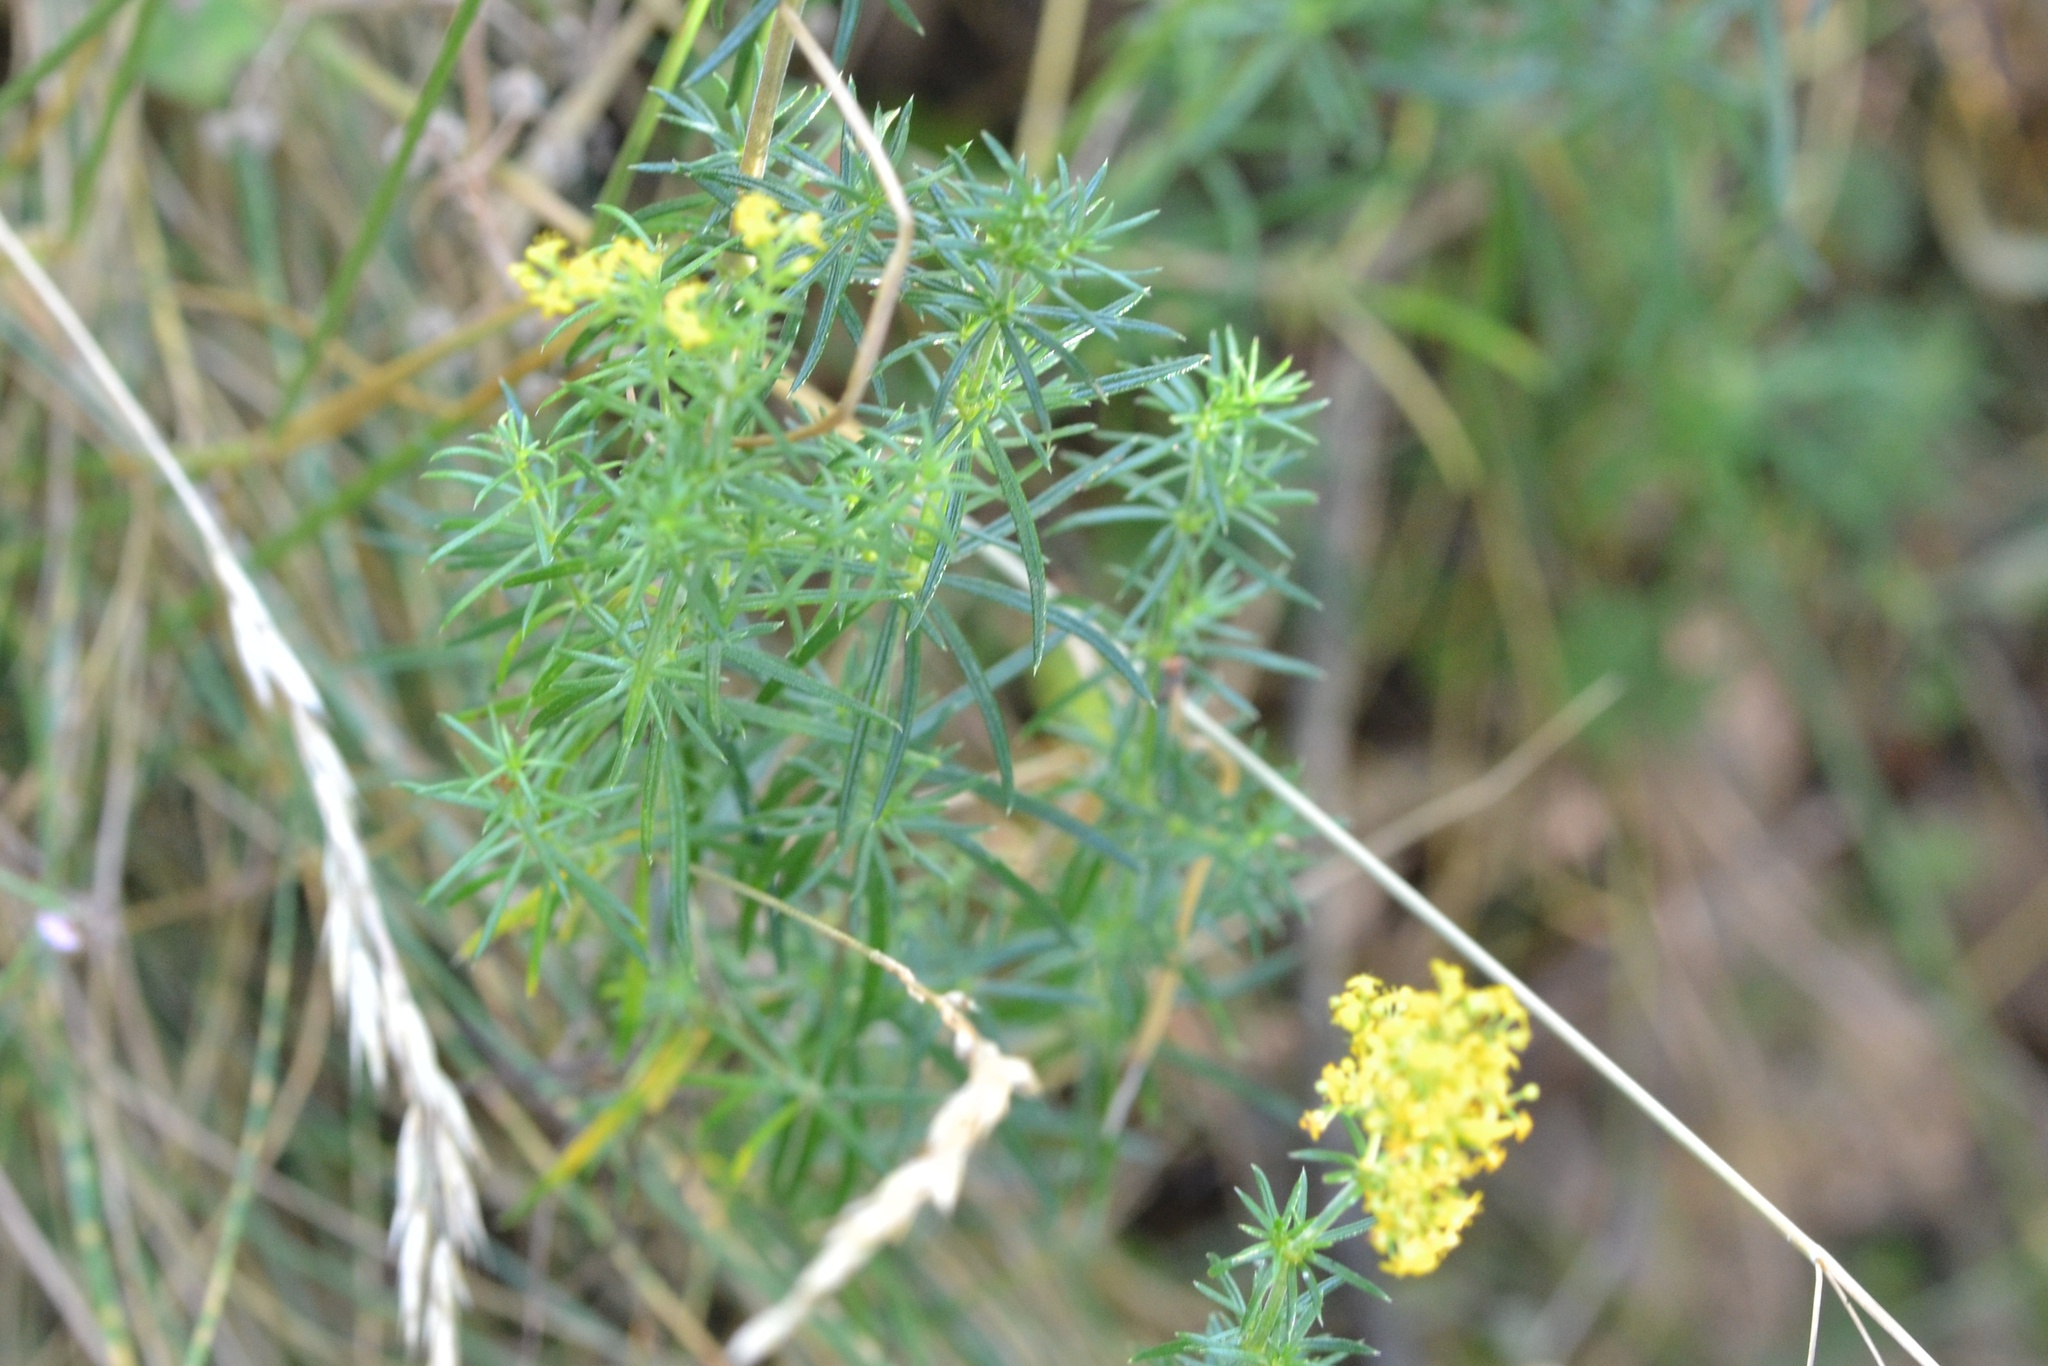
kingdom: Plantae
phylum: Tracheophyta
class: Magnoliopsida
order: Gentianales
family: Rubiaceae
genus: Galium
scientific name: Galium verum
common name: Lady's bedstraw
